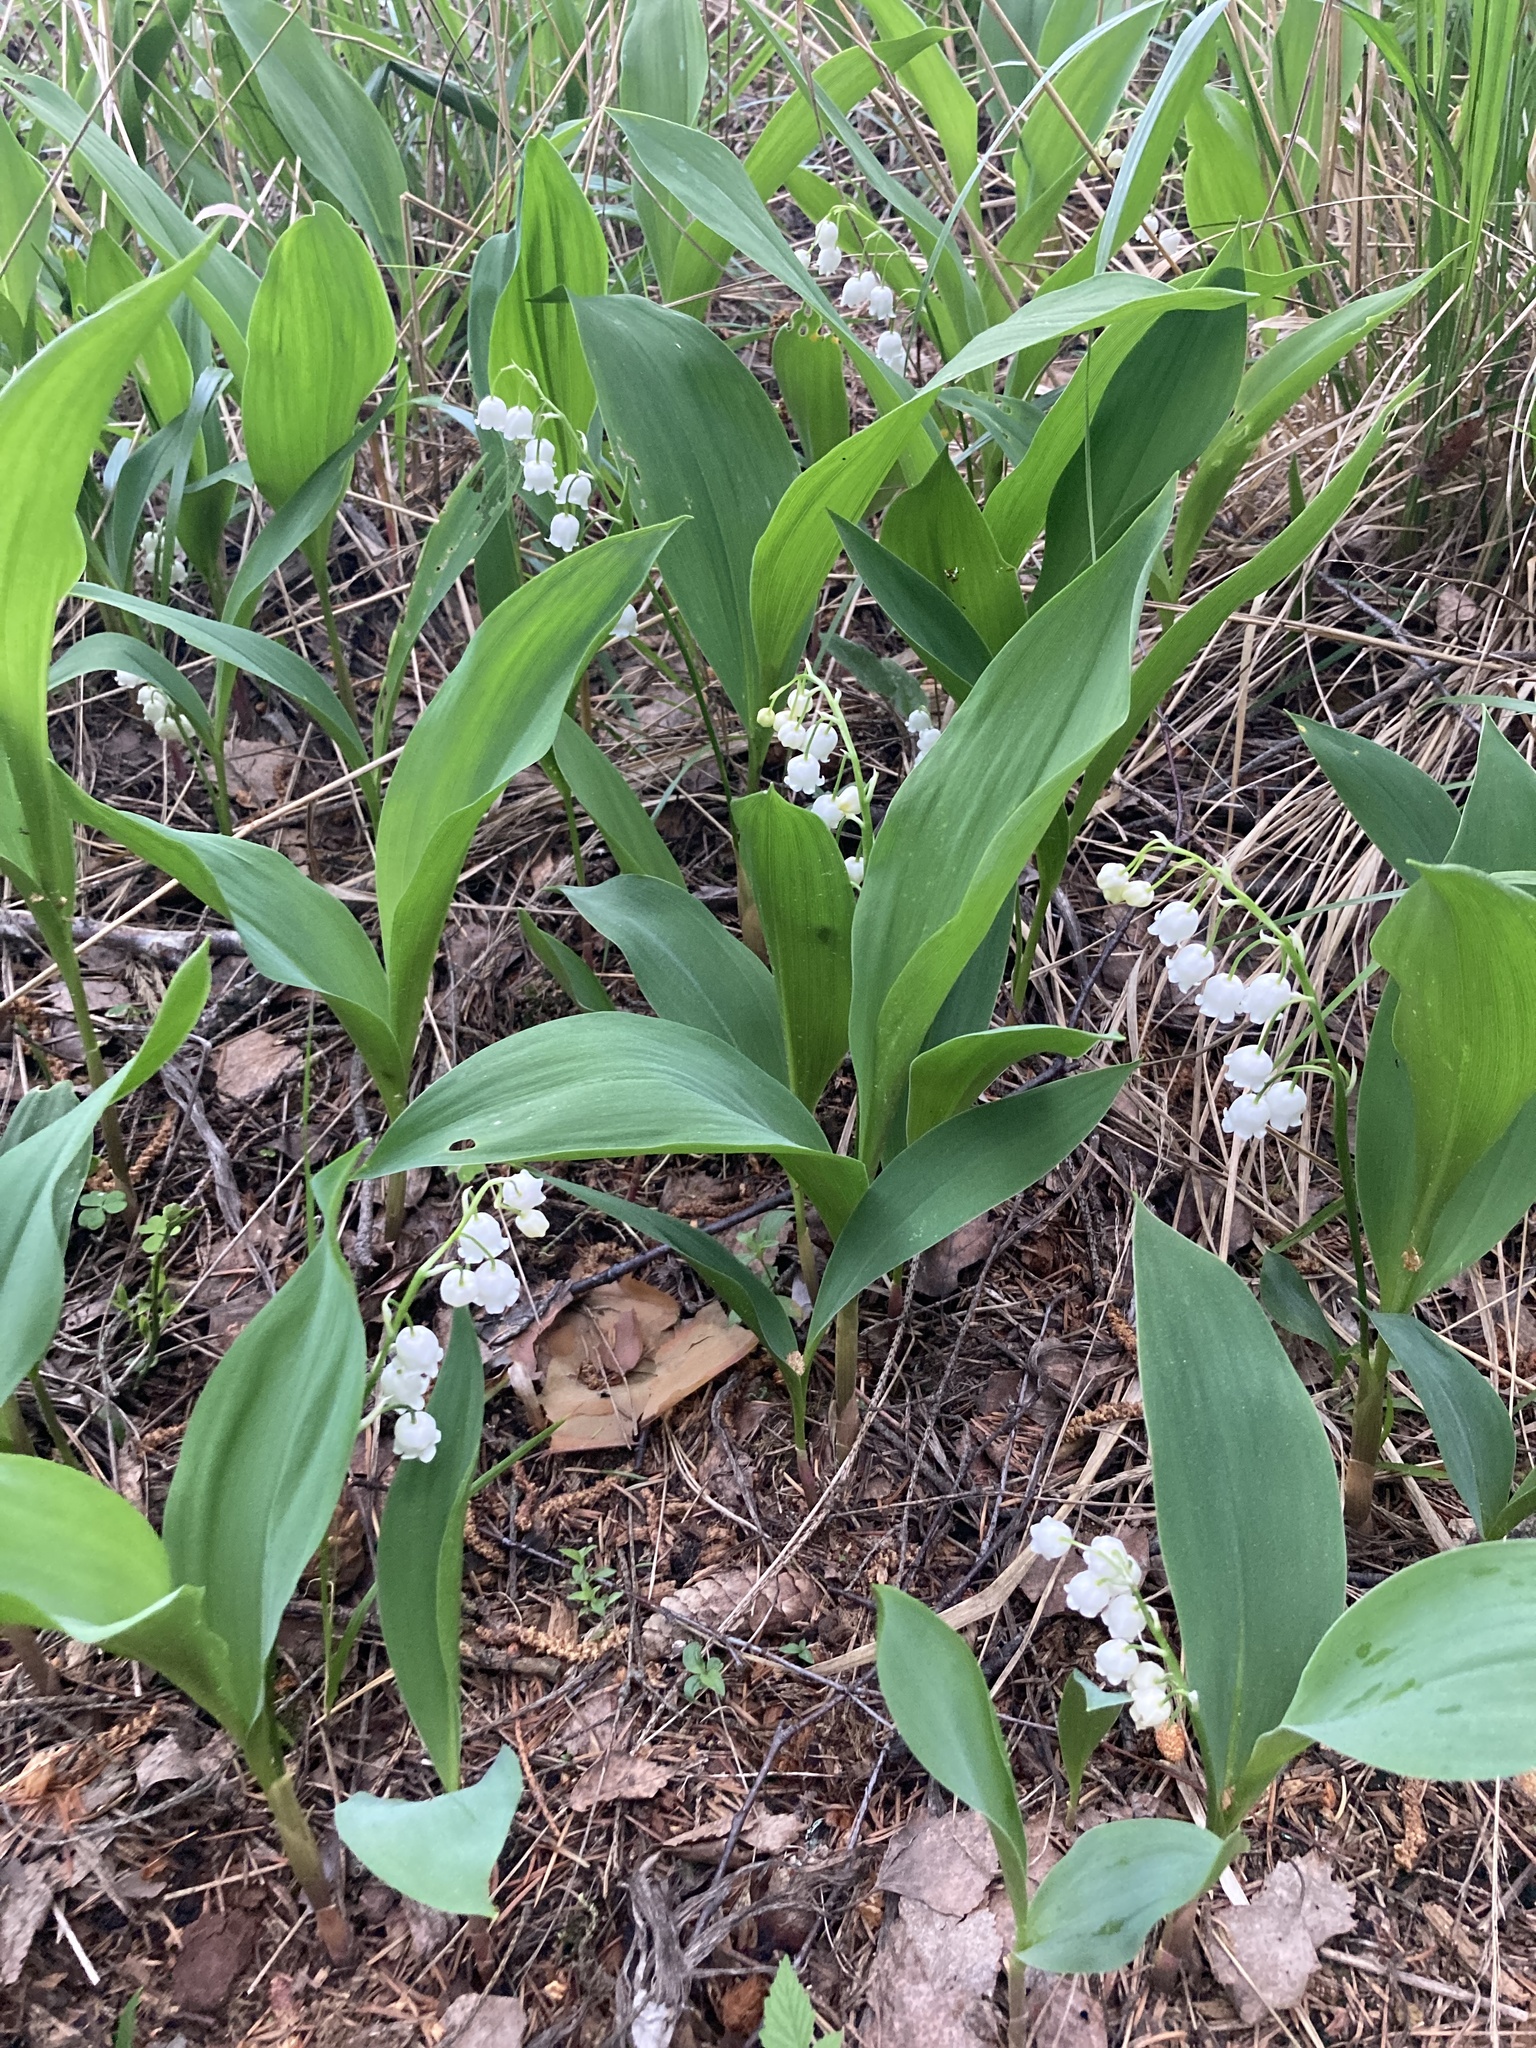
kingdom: Plantae
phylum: Tracheophyta
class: Liliopsida
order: Asparagales
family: Asparagaceae
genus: Convallaria
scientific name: Convallaria majalis
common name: Lily-of-the-valley
